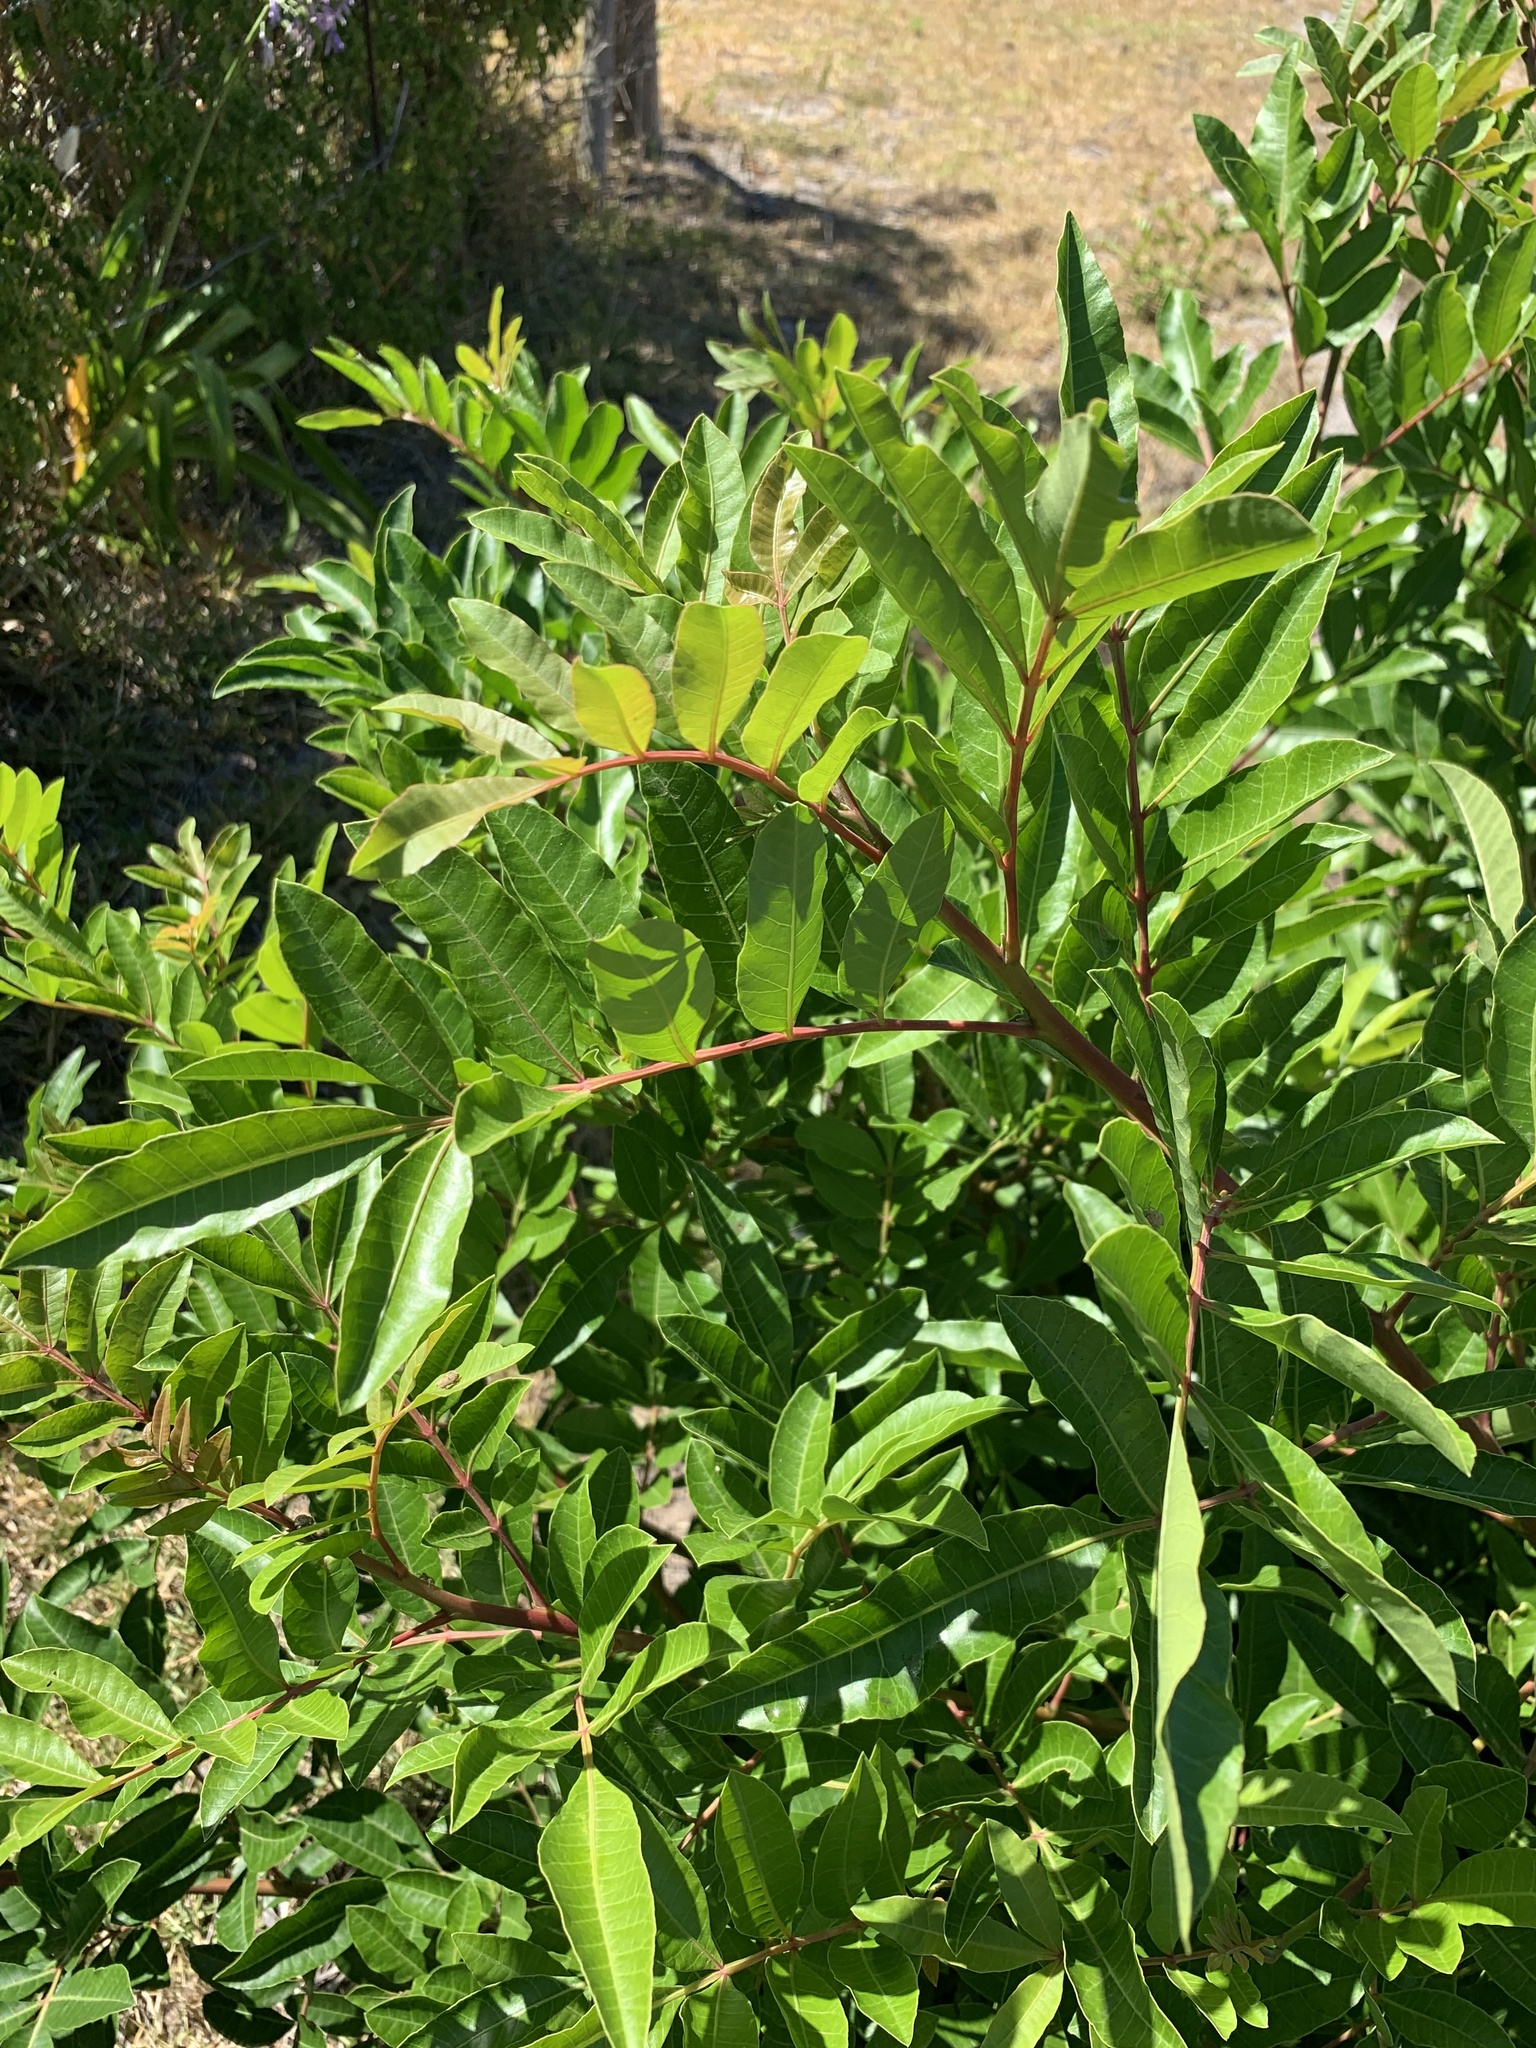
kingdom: Plantae
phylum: Tracheophyta
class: Magnoliopsida
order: Sapindales
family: Anacardiaceae
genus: Schinus
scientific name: Schinus terebinthifolia
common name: Brazilian peppertree
